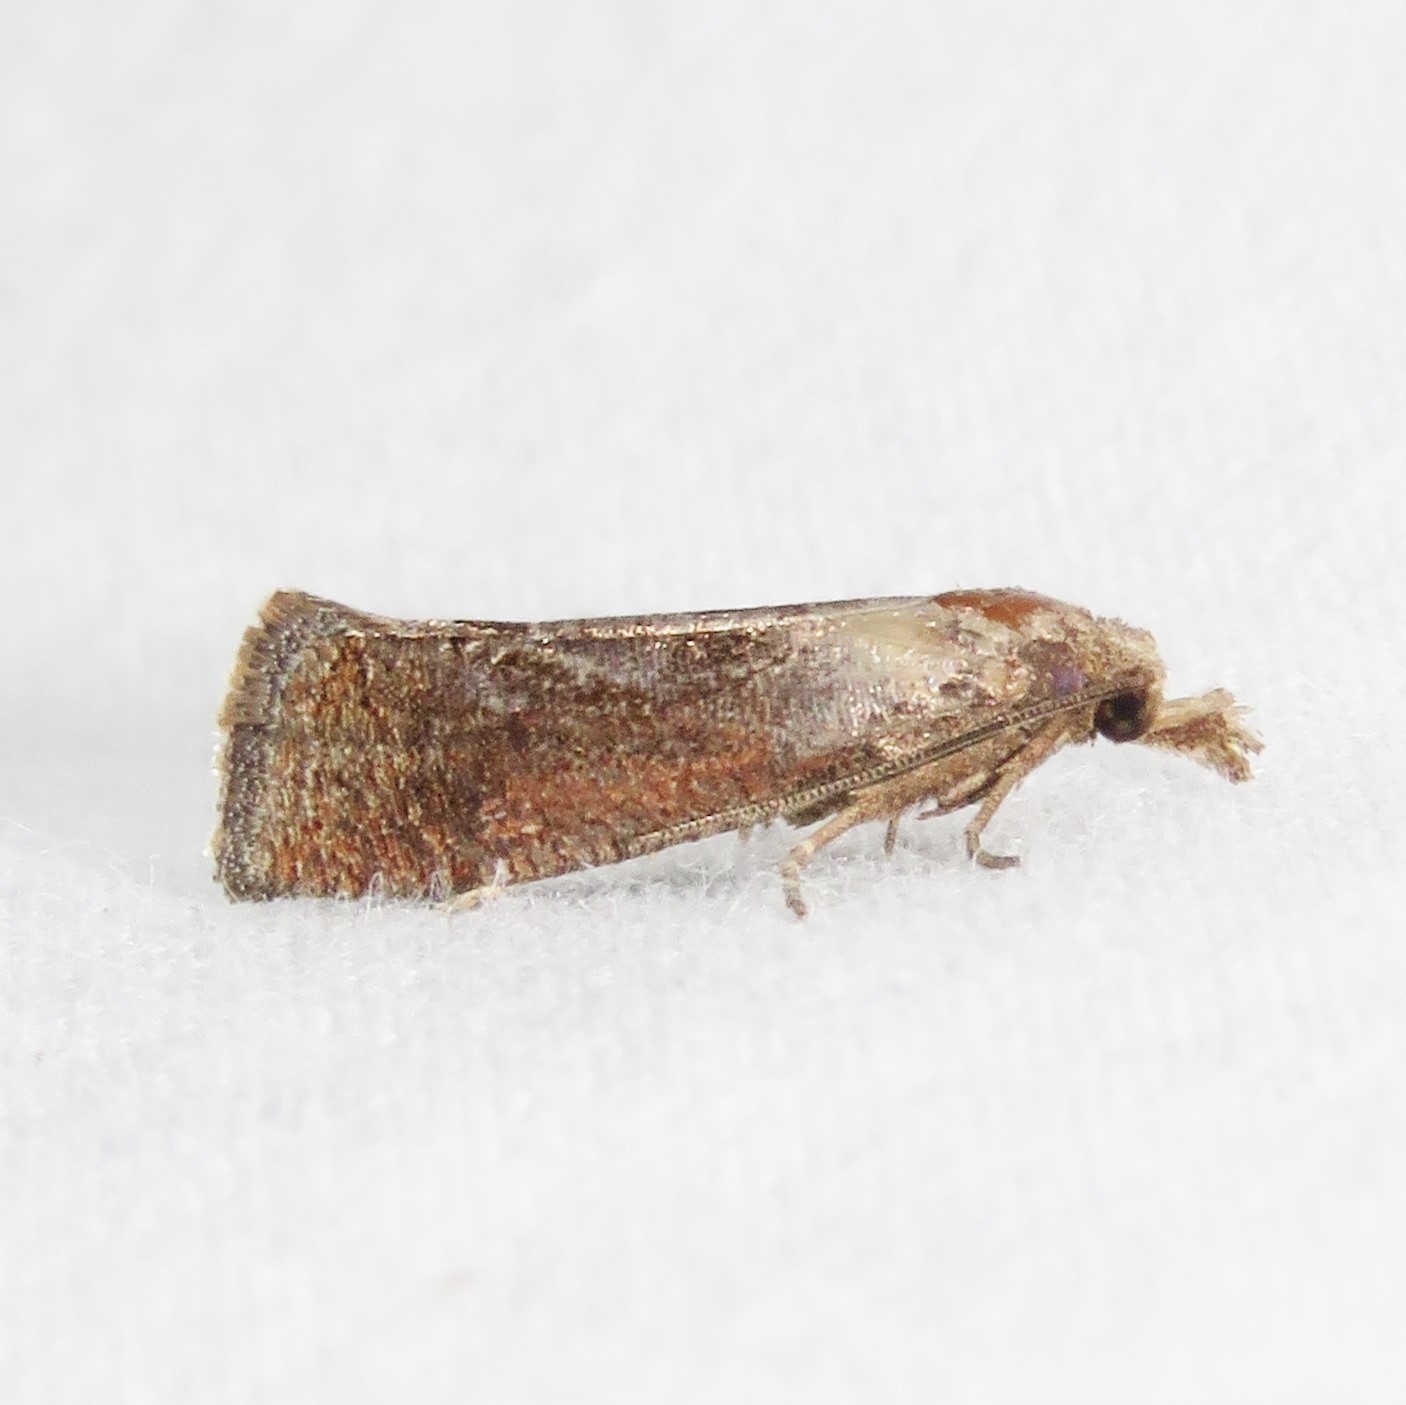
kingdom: Animalia
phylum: Arthropoda
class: Insecta
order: Lepidoptera
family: Tortricidae
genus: Pelochrista
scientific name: Pelochrista similiana
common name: Similar eucosma
